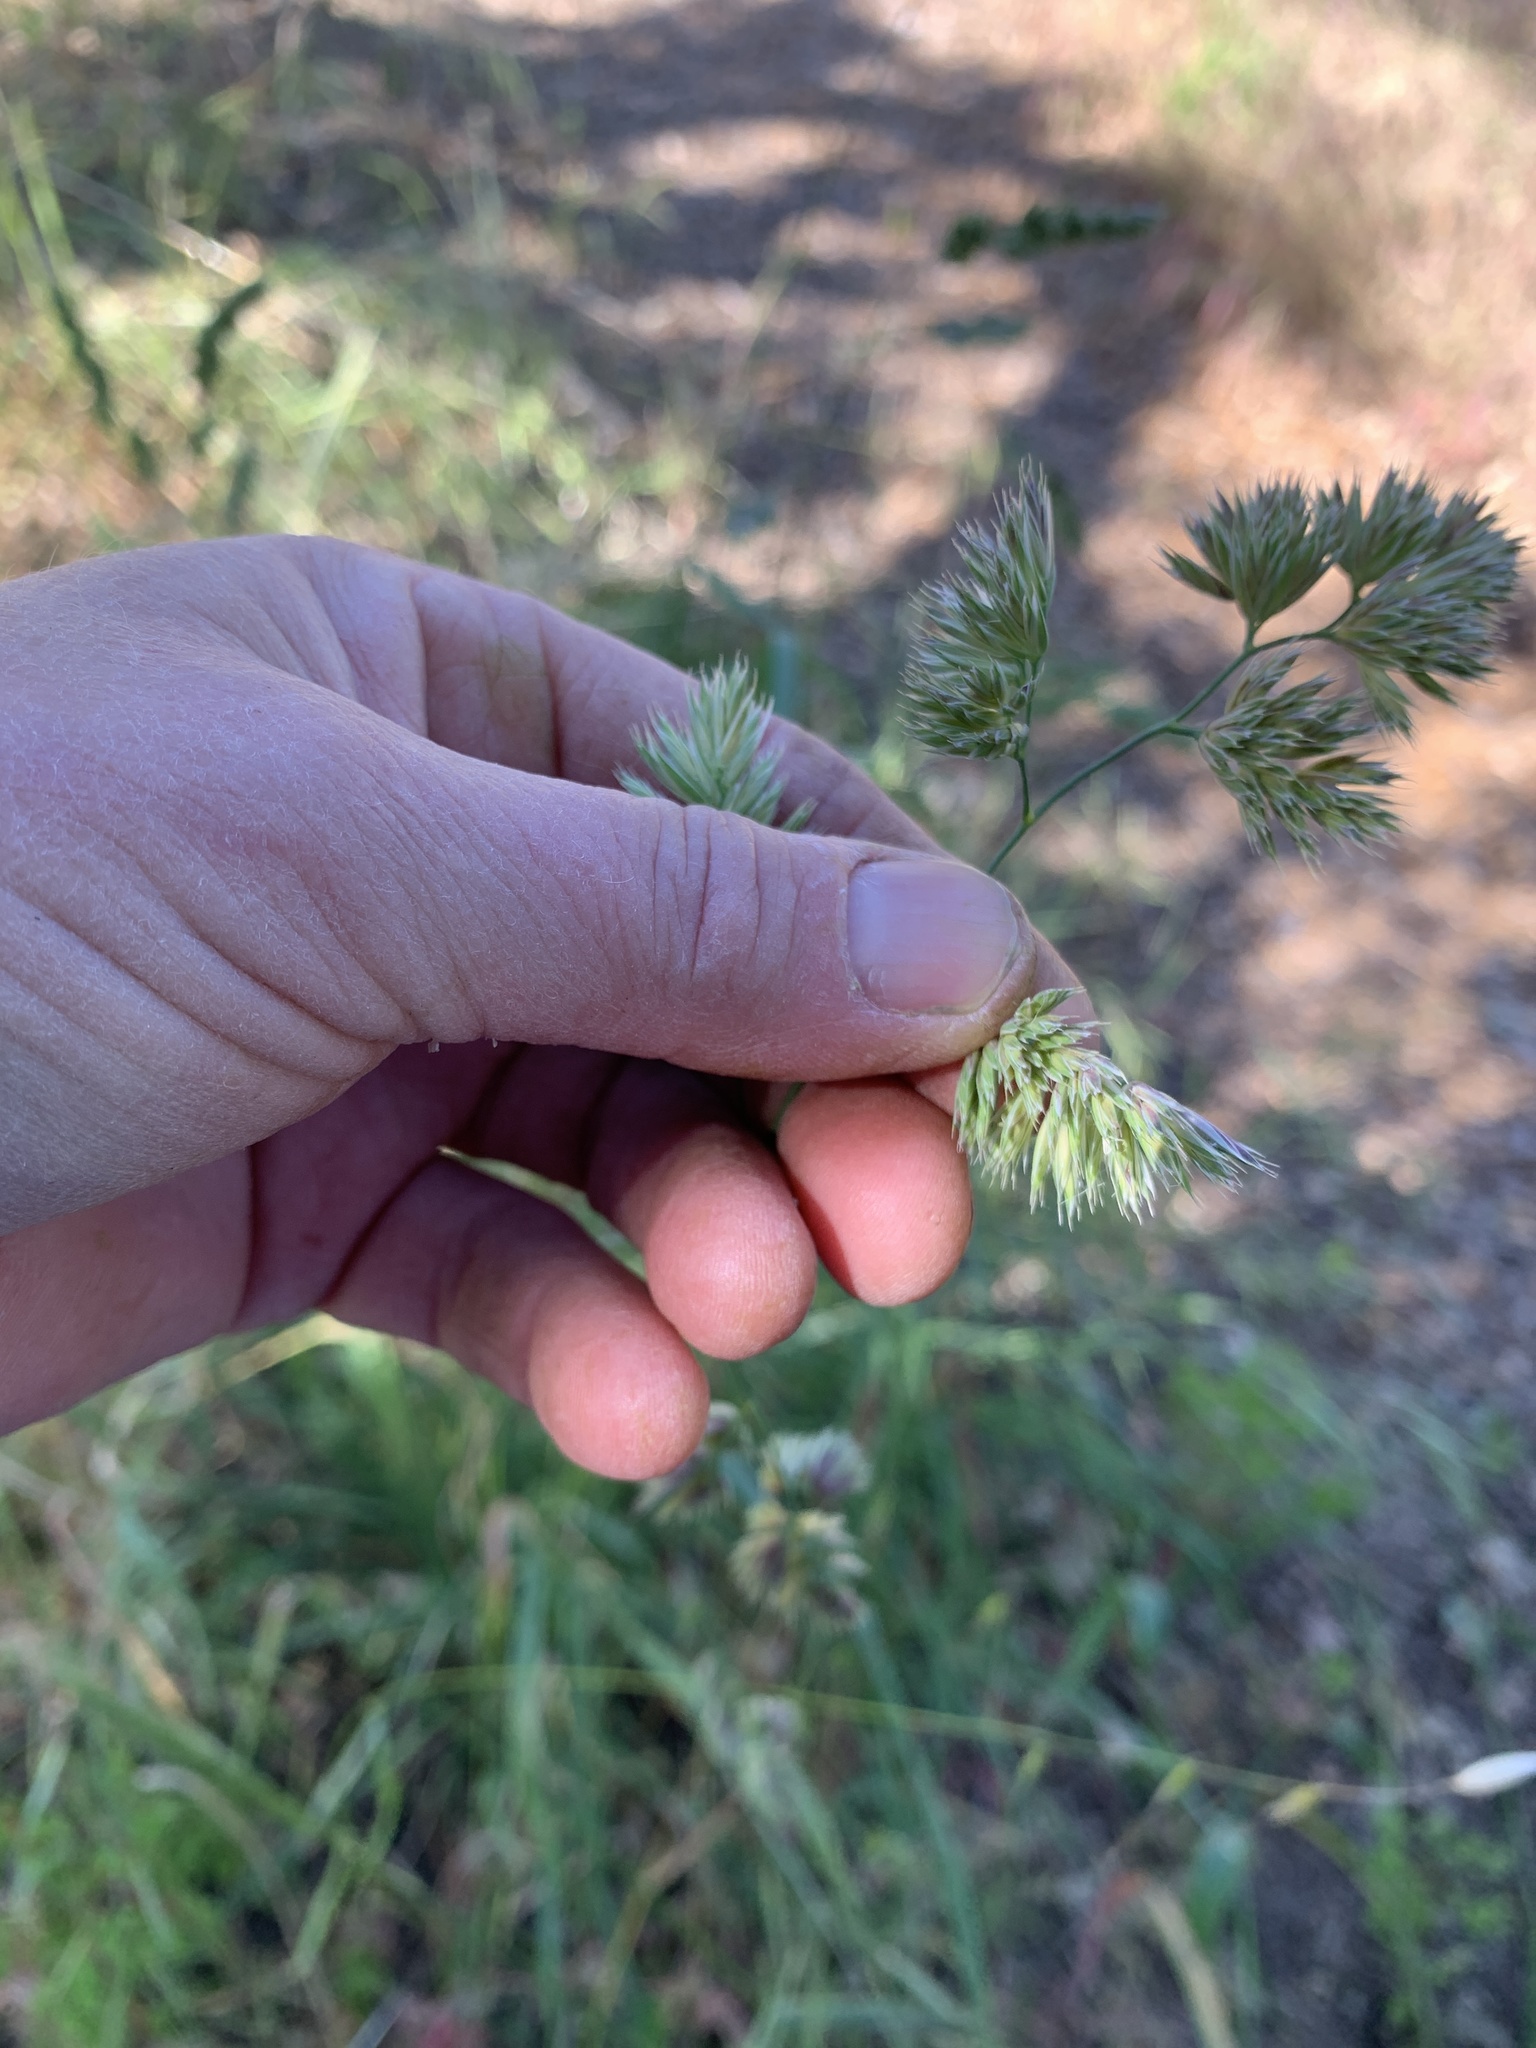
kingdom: Plantae
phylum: Tracheophyta
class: Liliopsida
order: Poales
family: Poaceae
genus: Dactylis
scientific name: Dactylis glomerata
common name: Orchardgrass
